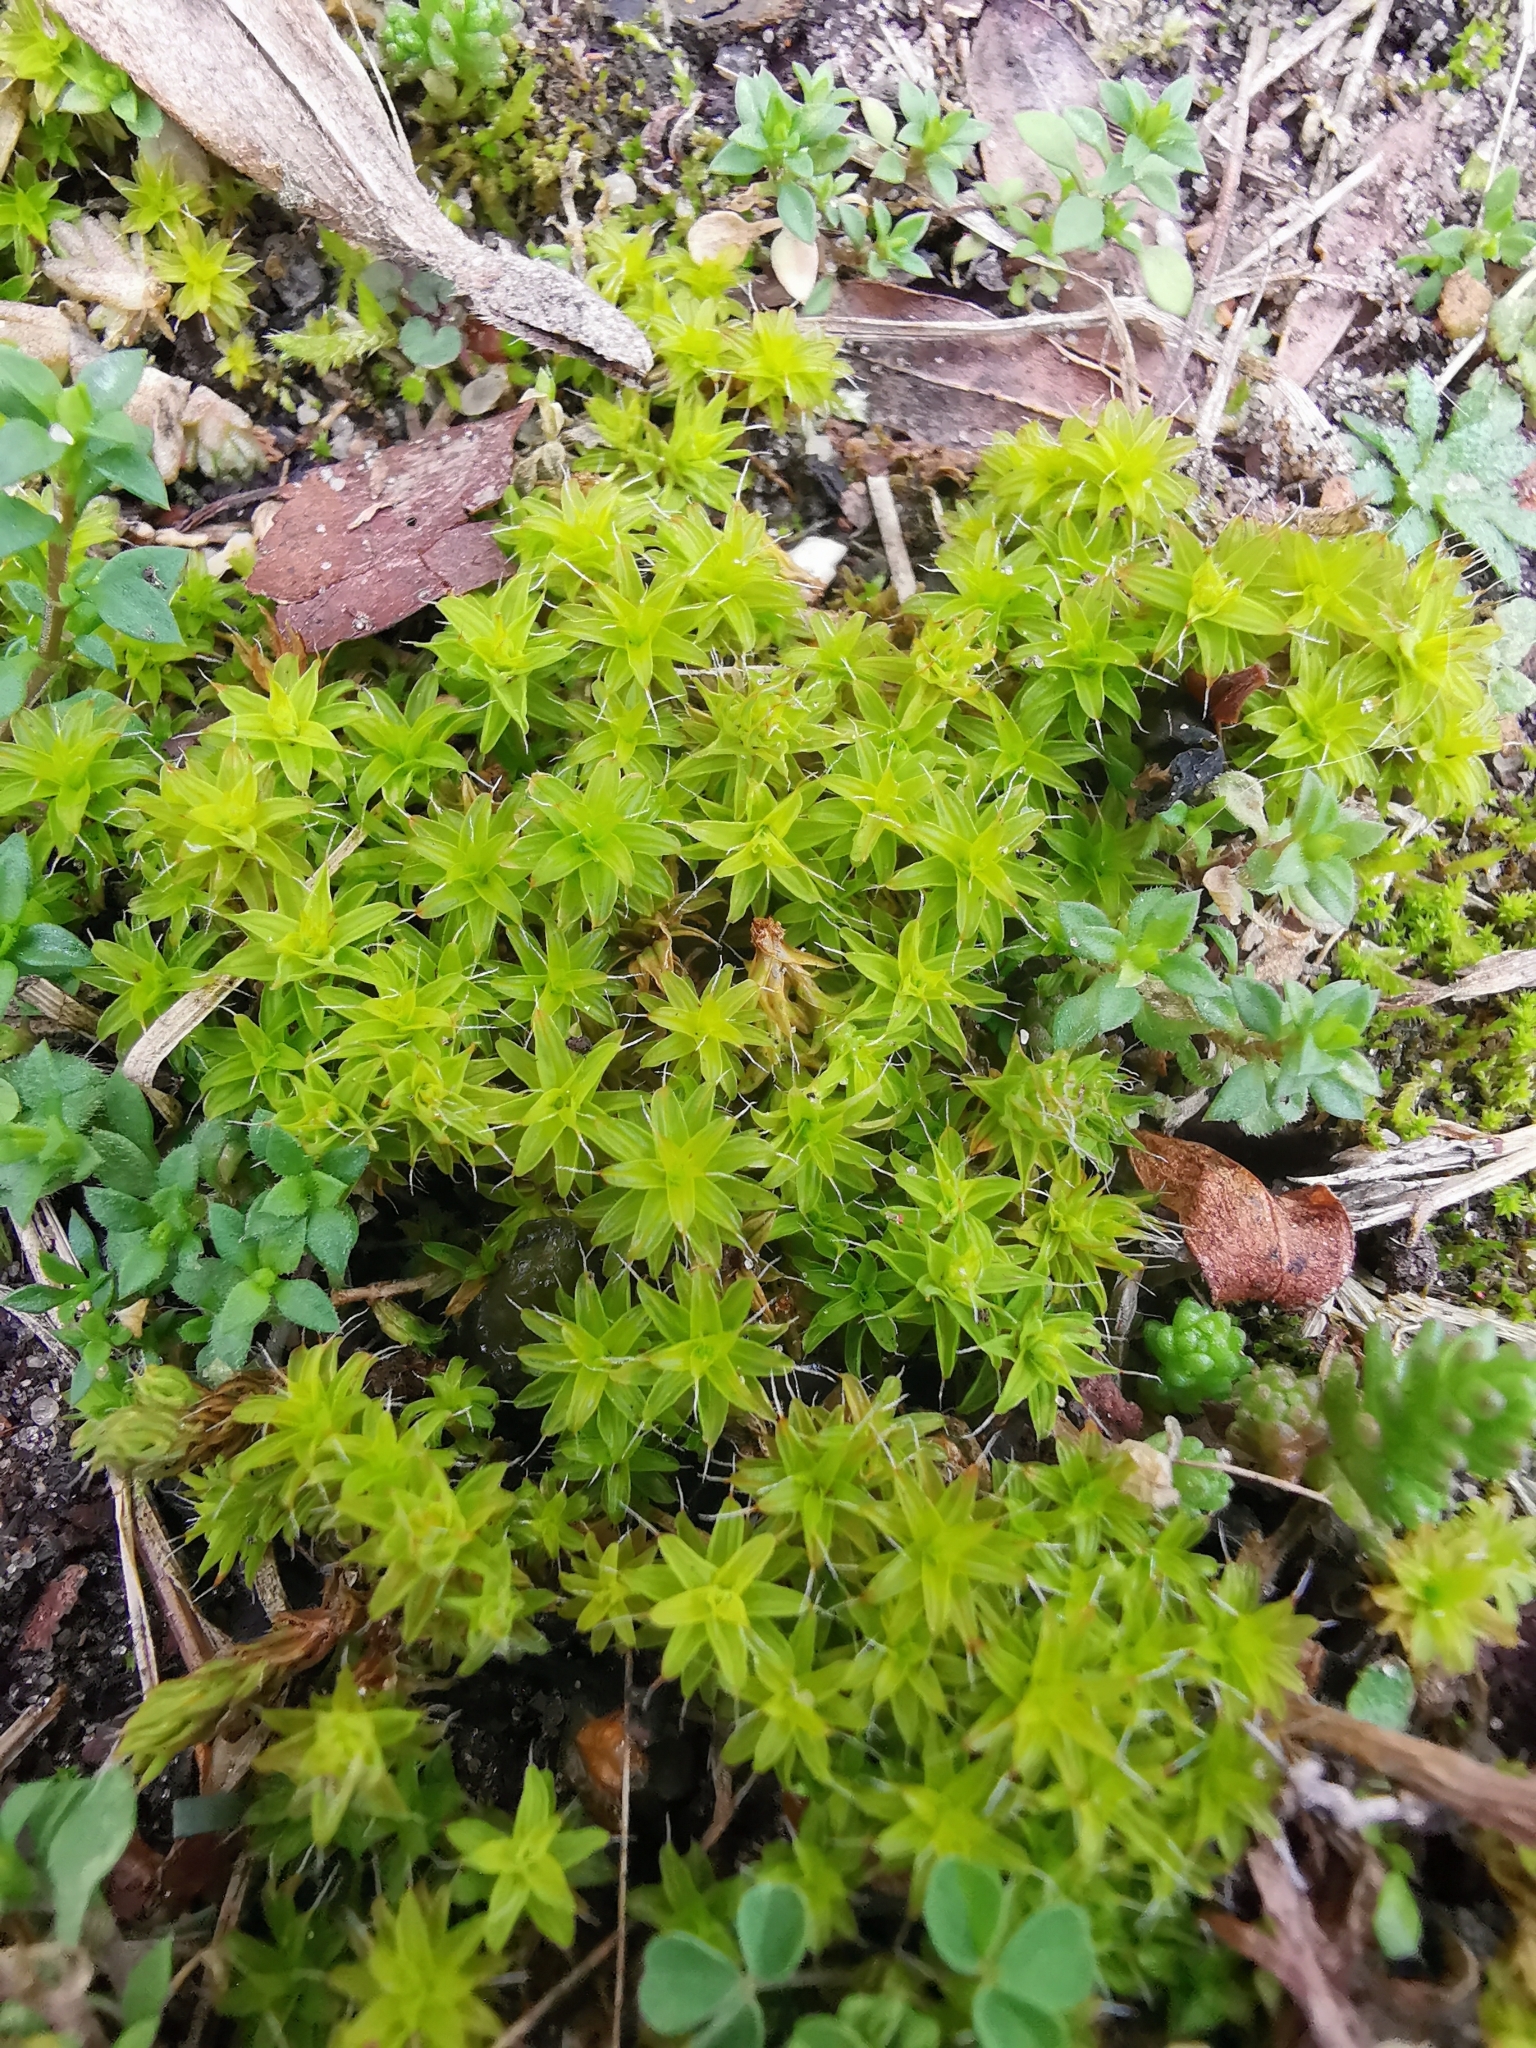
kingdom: Plantae
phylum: Bryophyta
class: Bryopsida
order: Pottiales
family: Pottiaceae
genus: Syntrichia
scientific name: Syntrichia ruralis
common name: Sidewalk screw moss
